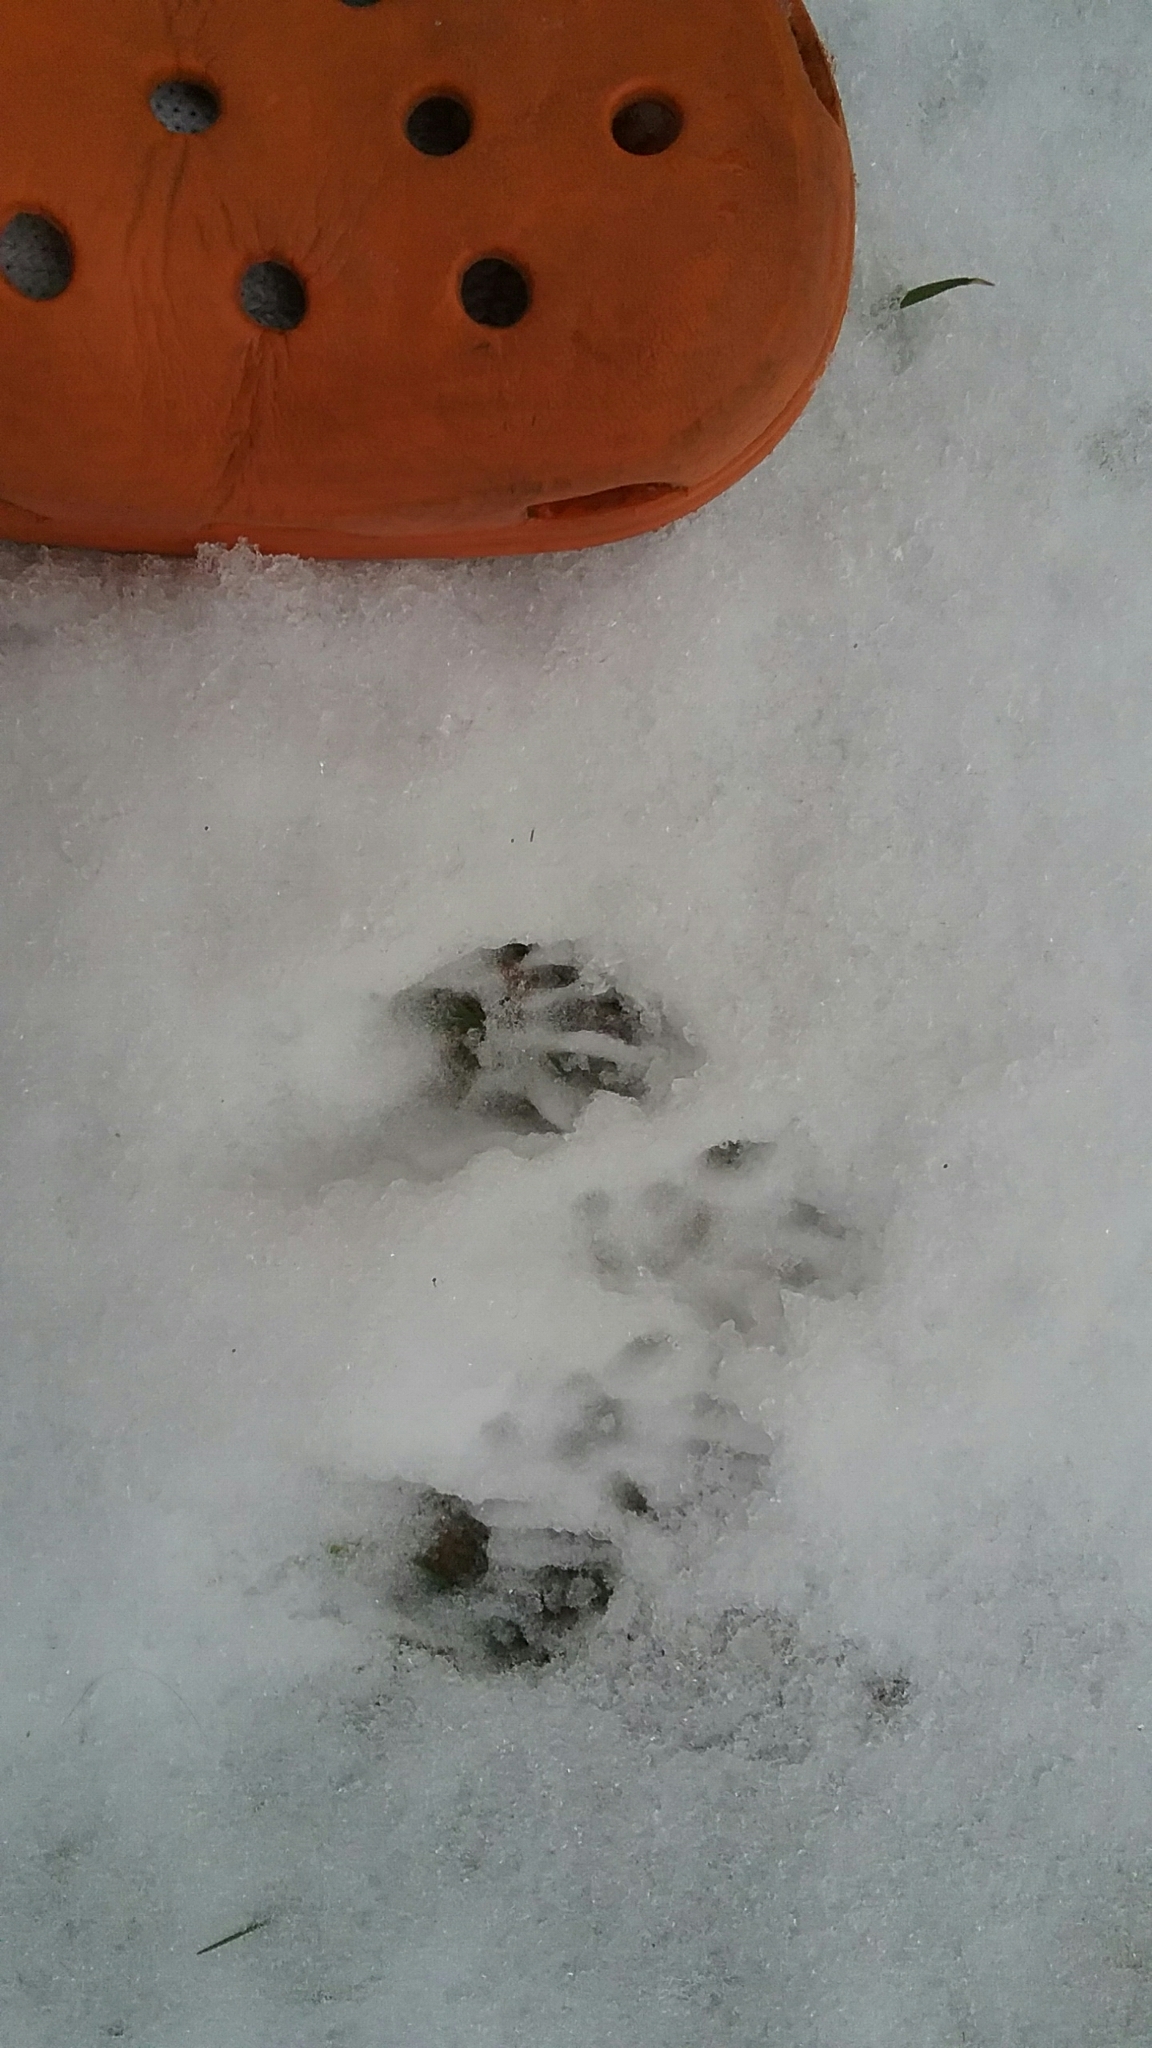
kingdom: Animalia
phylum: Chordata
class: Mammalia
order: Rodentia
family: Sciuridae
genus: Sciurus
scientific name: Sciurus carolinensis
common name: Eastern gray squirrel
